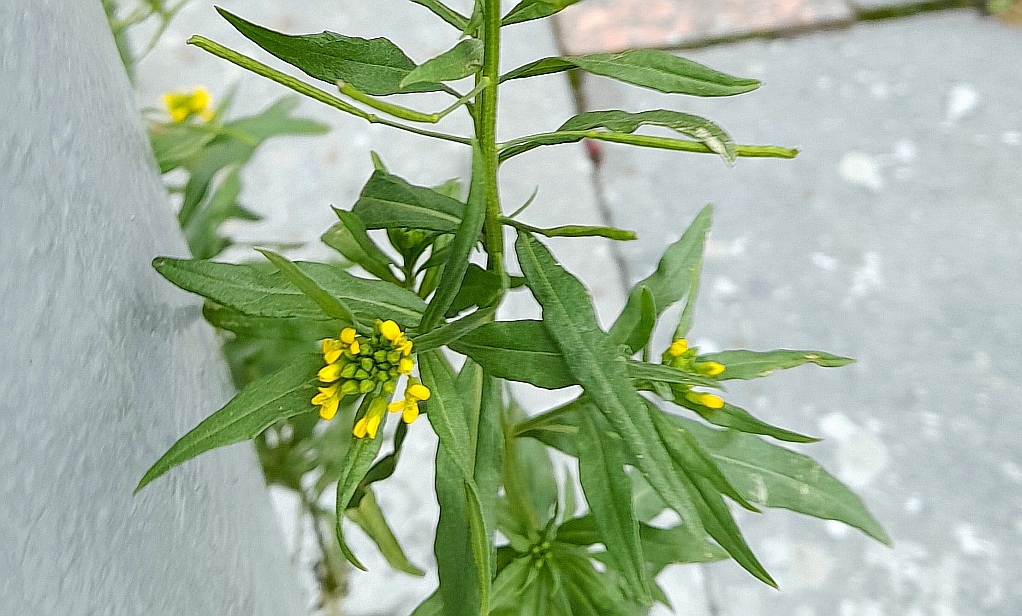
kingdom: Plantae
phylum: Tracheophyta
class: Magnoliopsida
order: Brassicales
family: Brassicaceae
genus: Erysimum
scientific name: Erysimum cheiranthoides
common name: Treacle mustard
